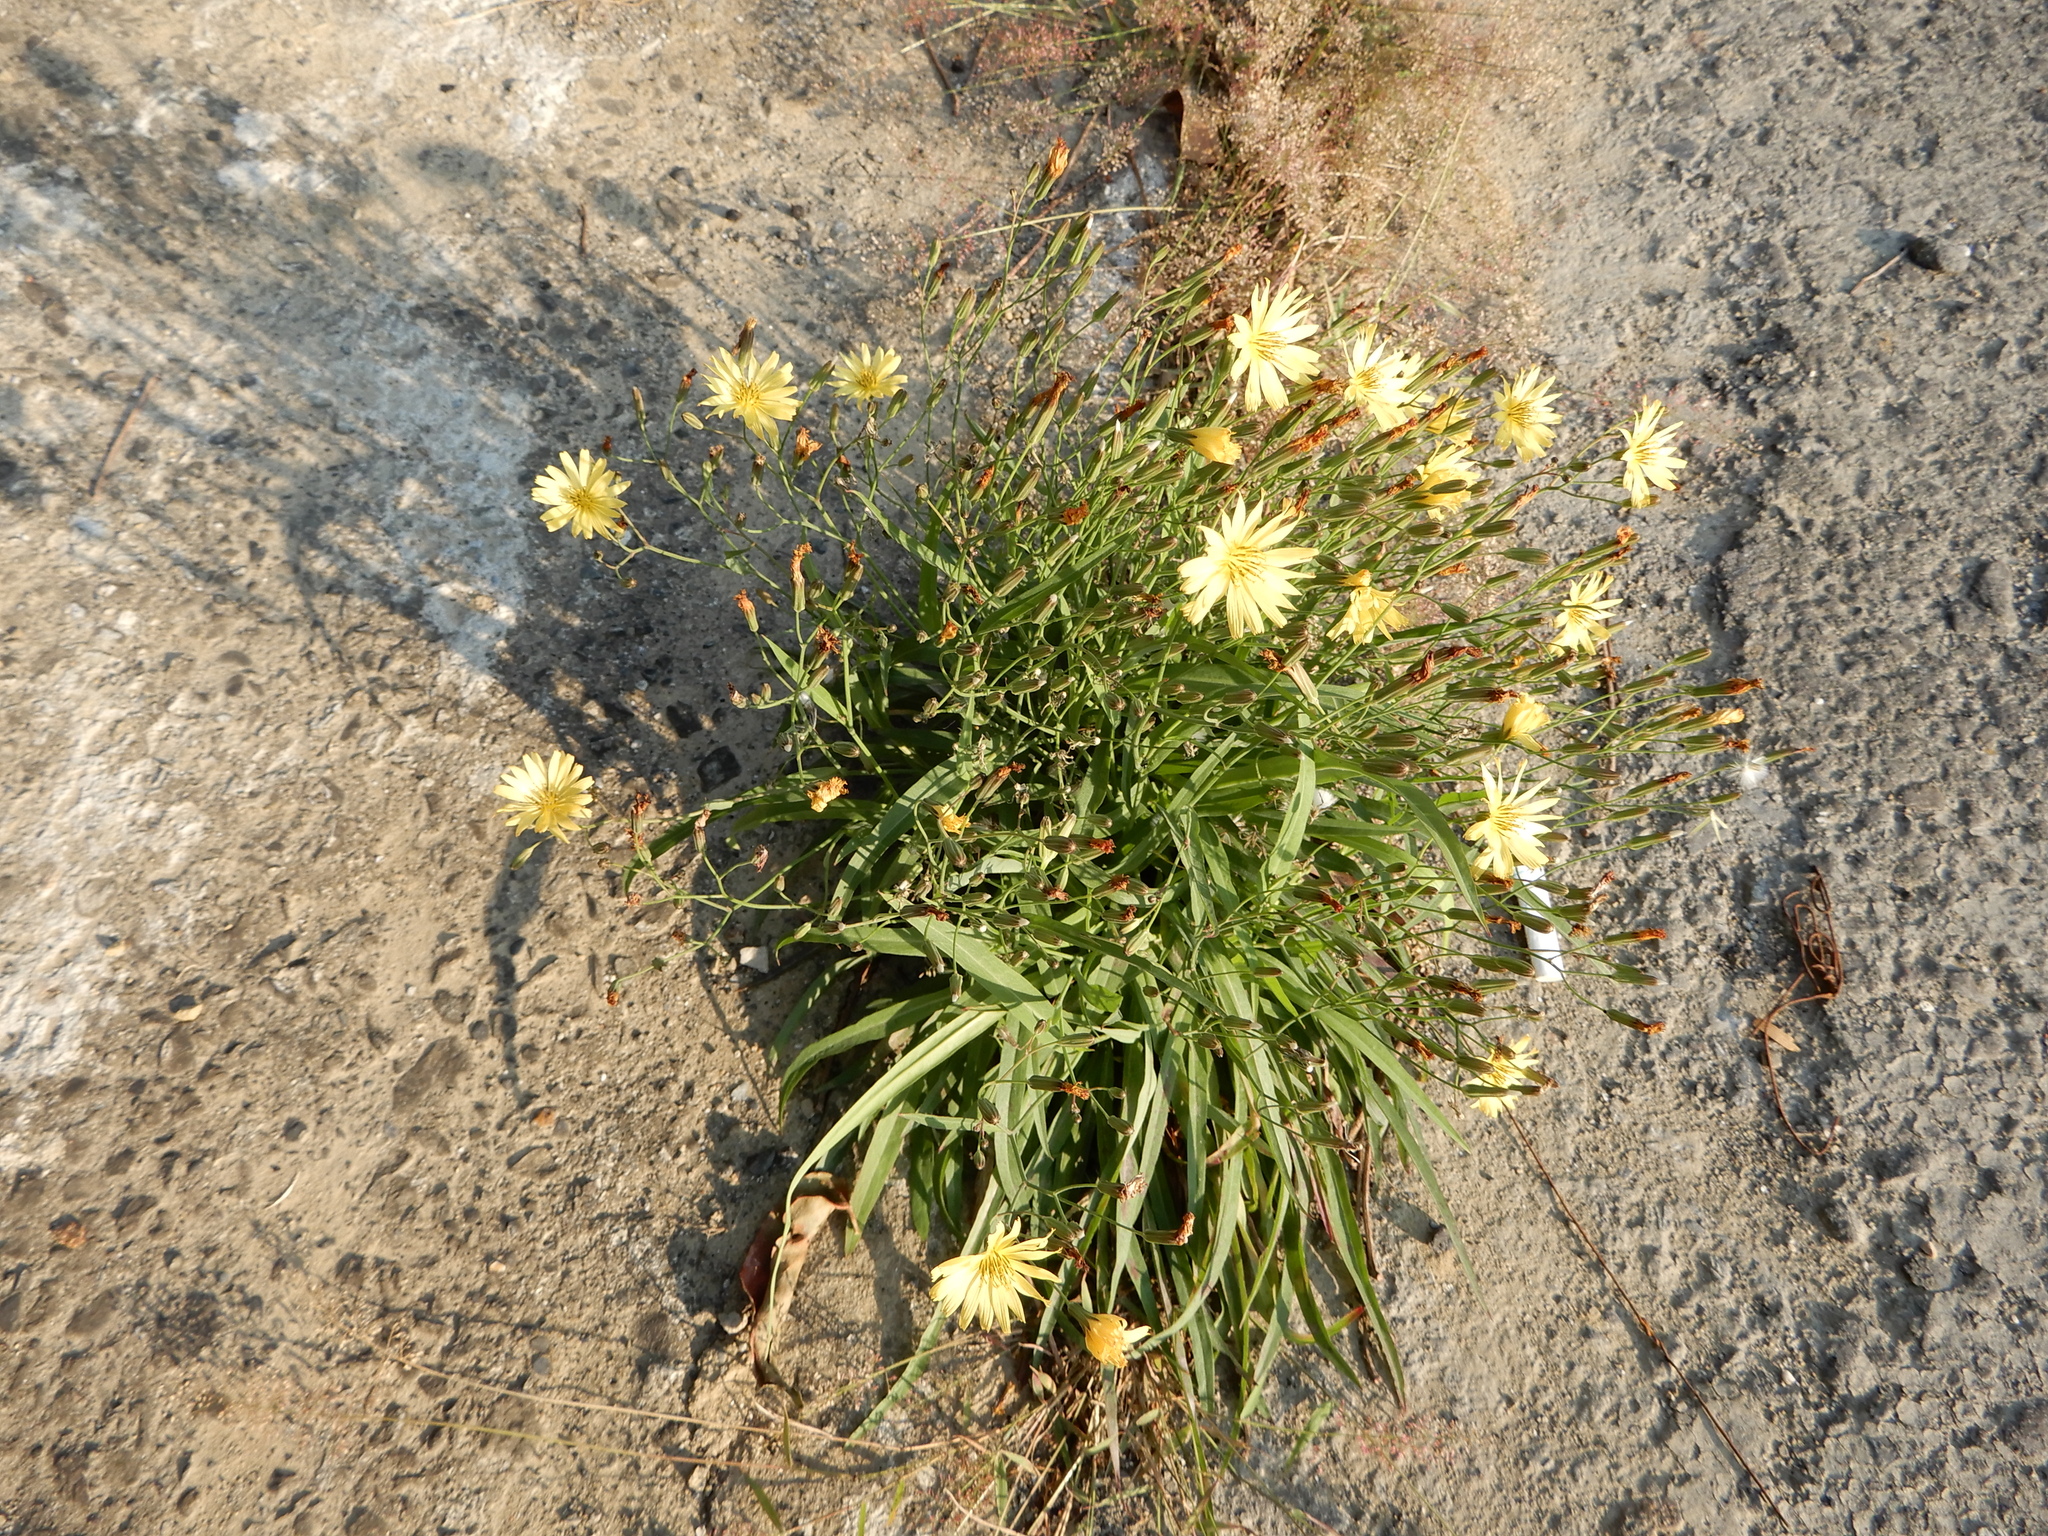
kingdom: Plantae
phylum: Tracheophyta
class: Magnoliopsida
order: Asterales
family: Asteraceae
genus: Ixeris
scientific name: Ixeris chinensis
